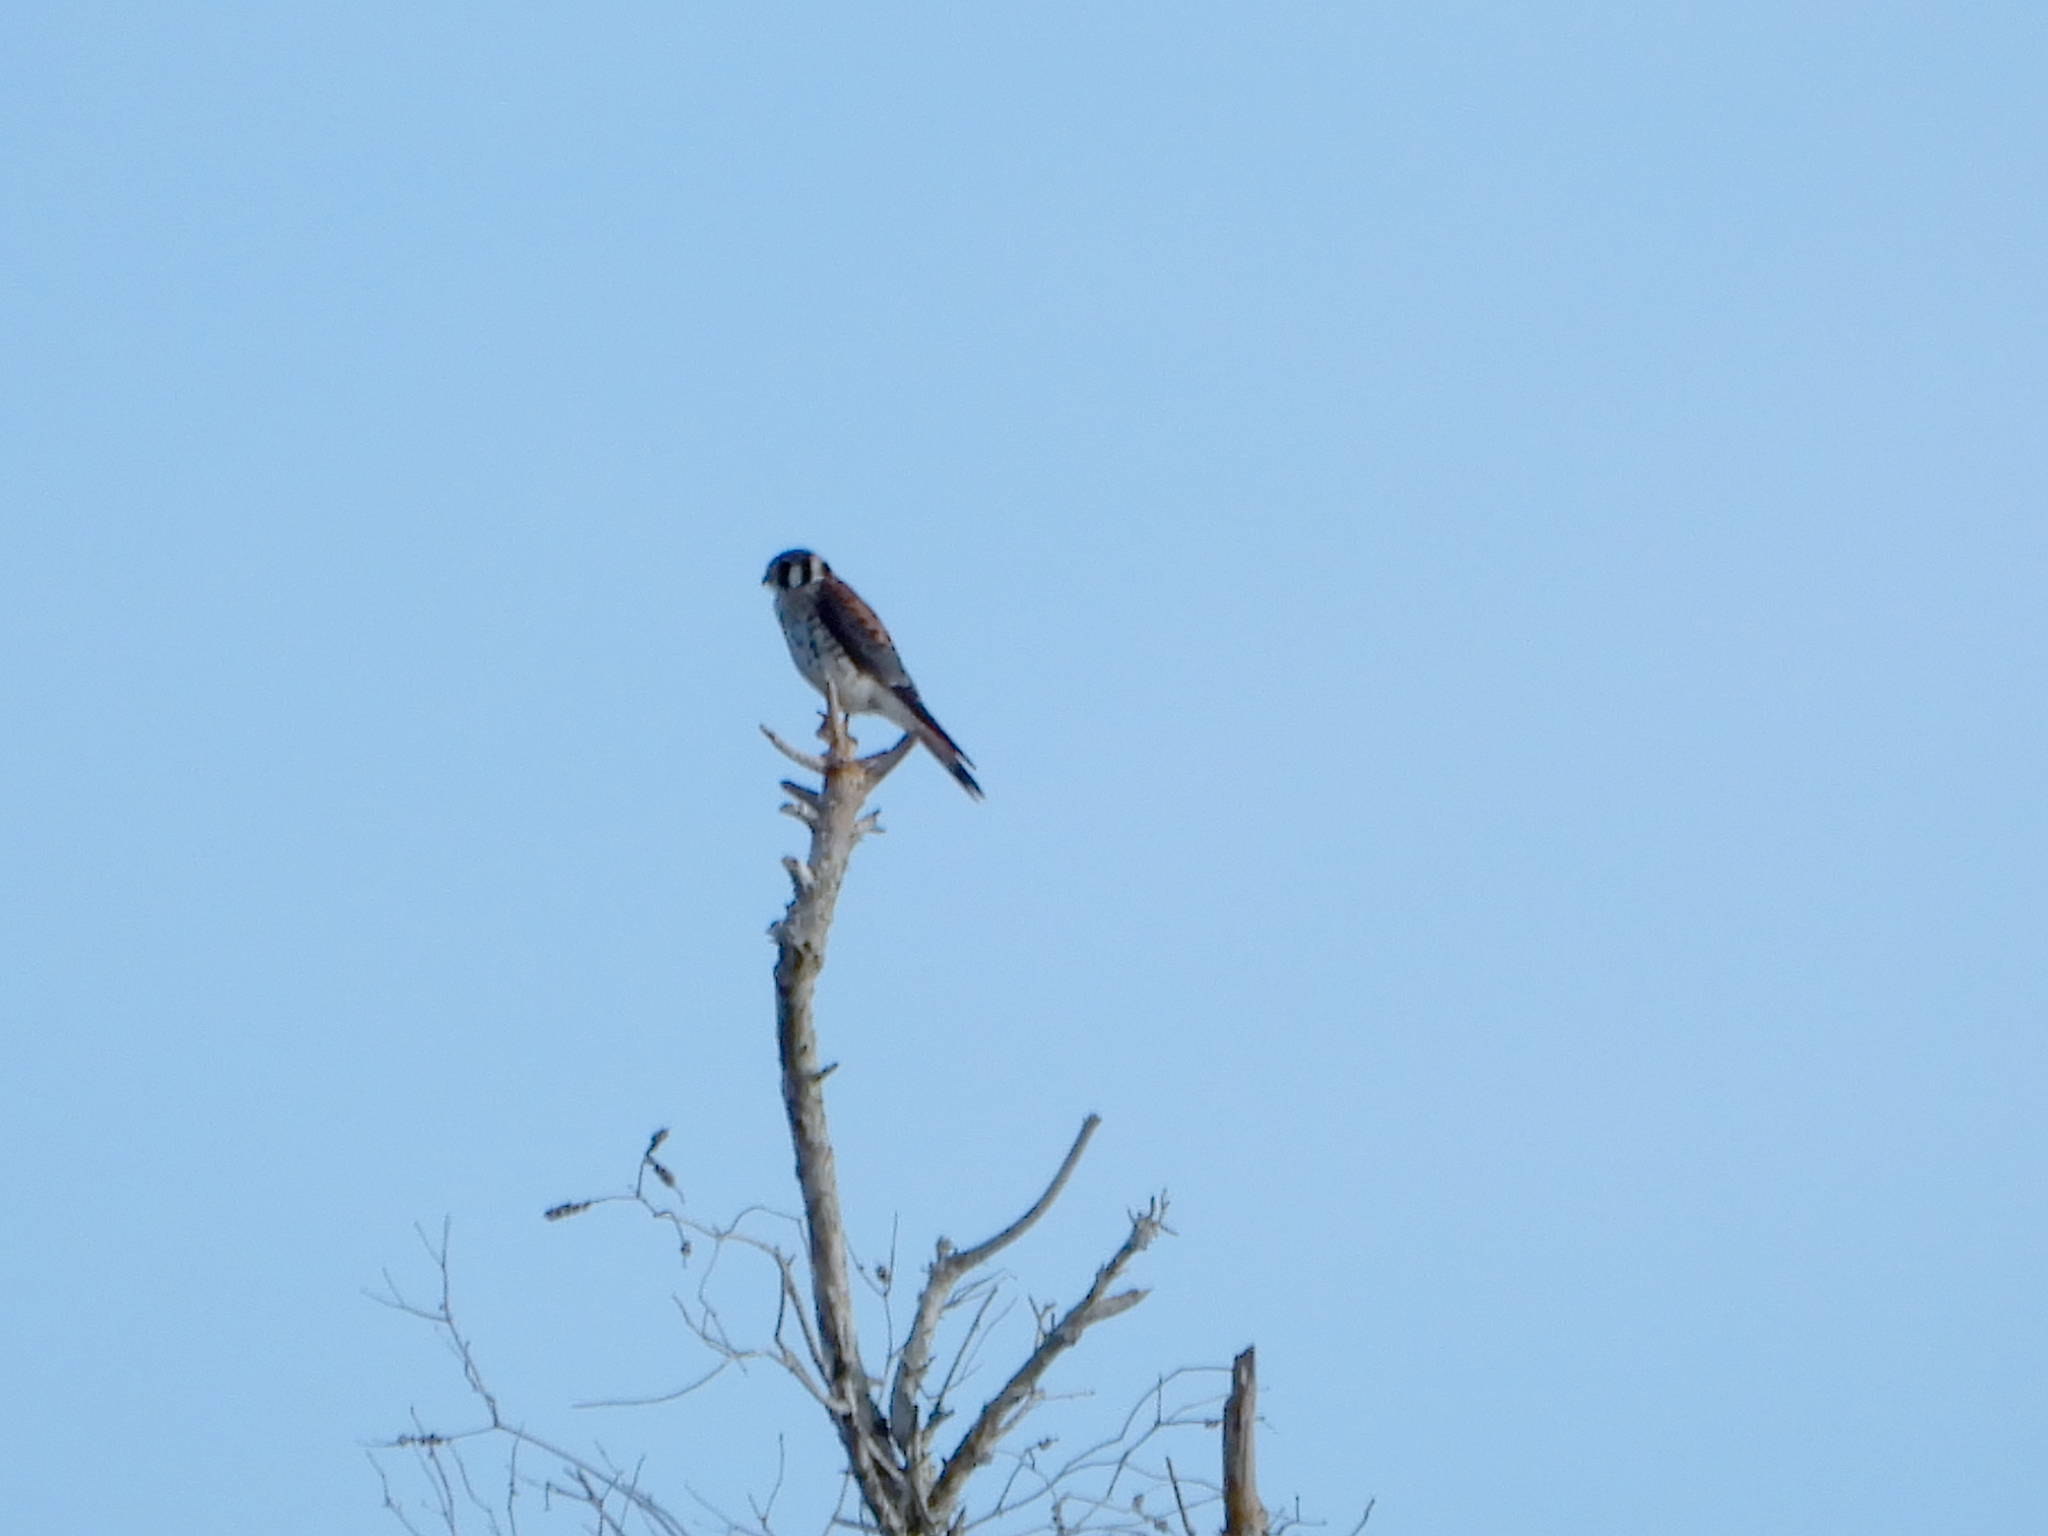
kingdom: Animalia
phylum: Chordata
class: Aves
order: Falconiformes
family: Falconidae
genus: Falco
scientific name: Falco sparverius
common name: American kestrel
